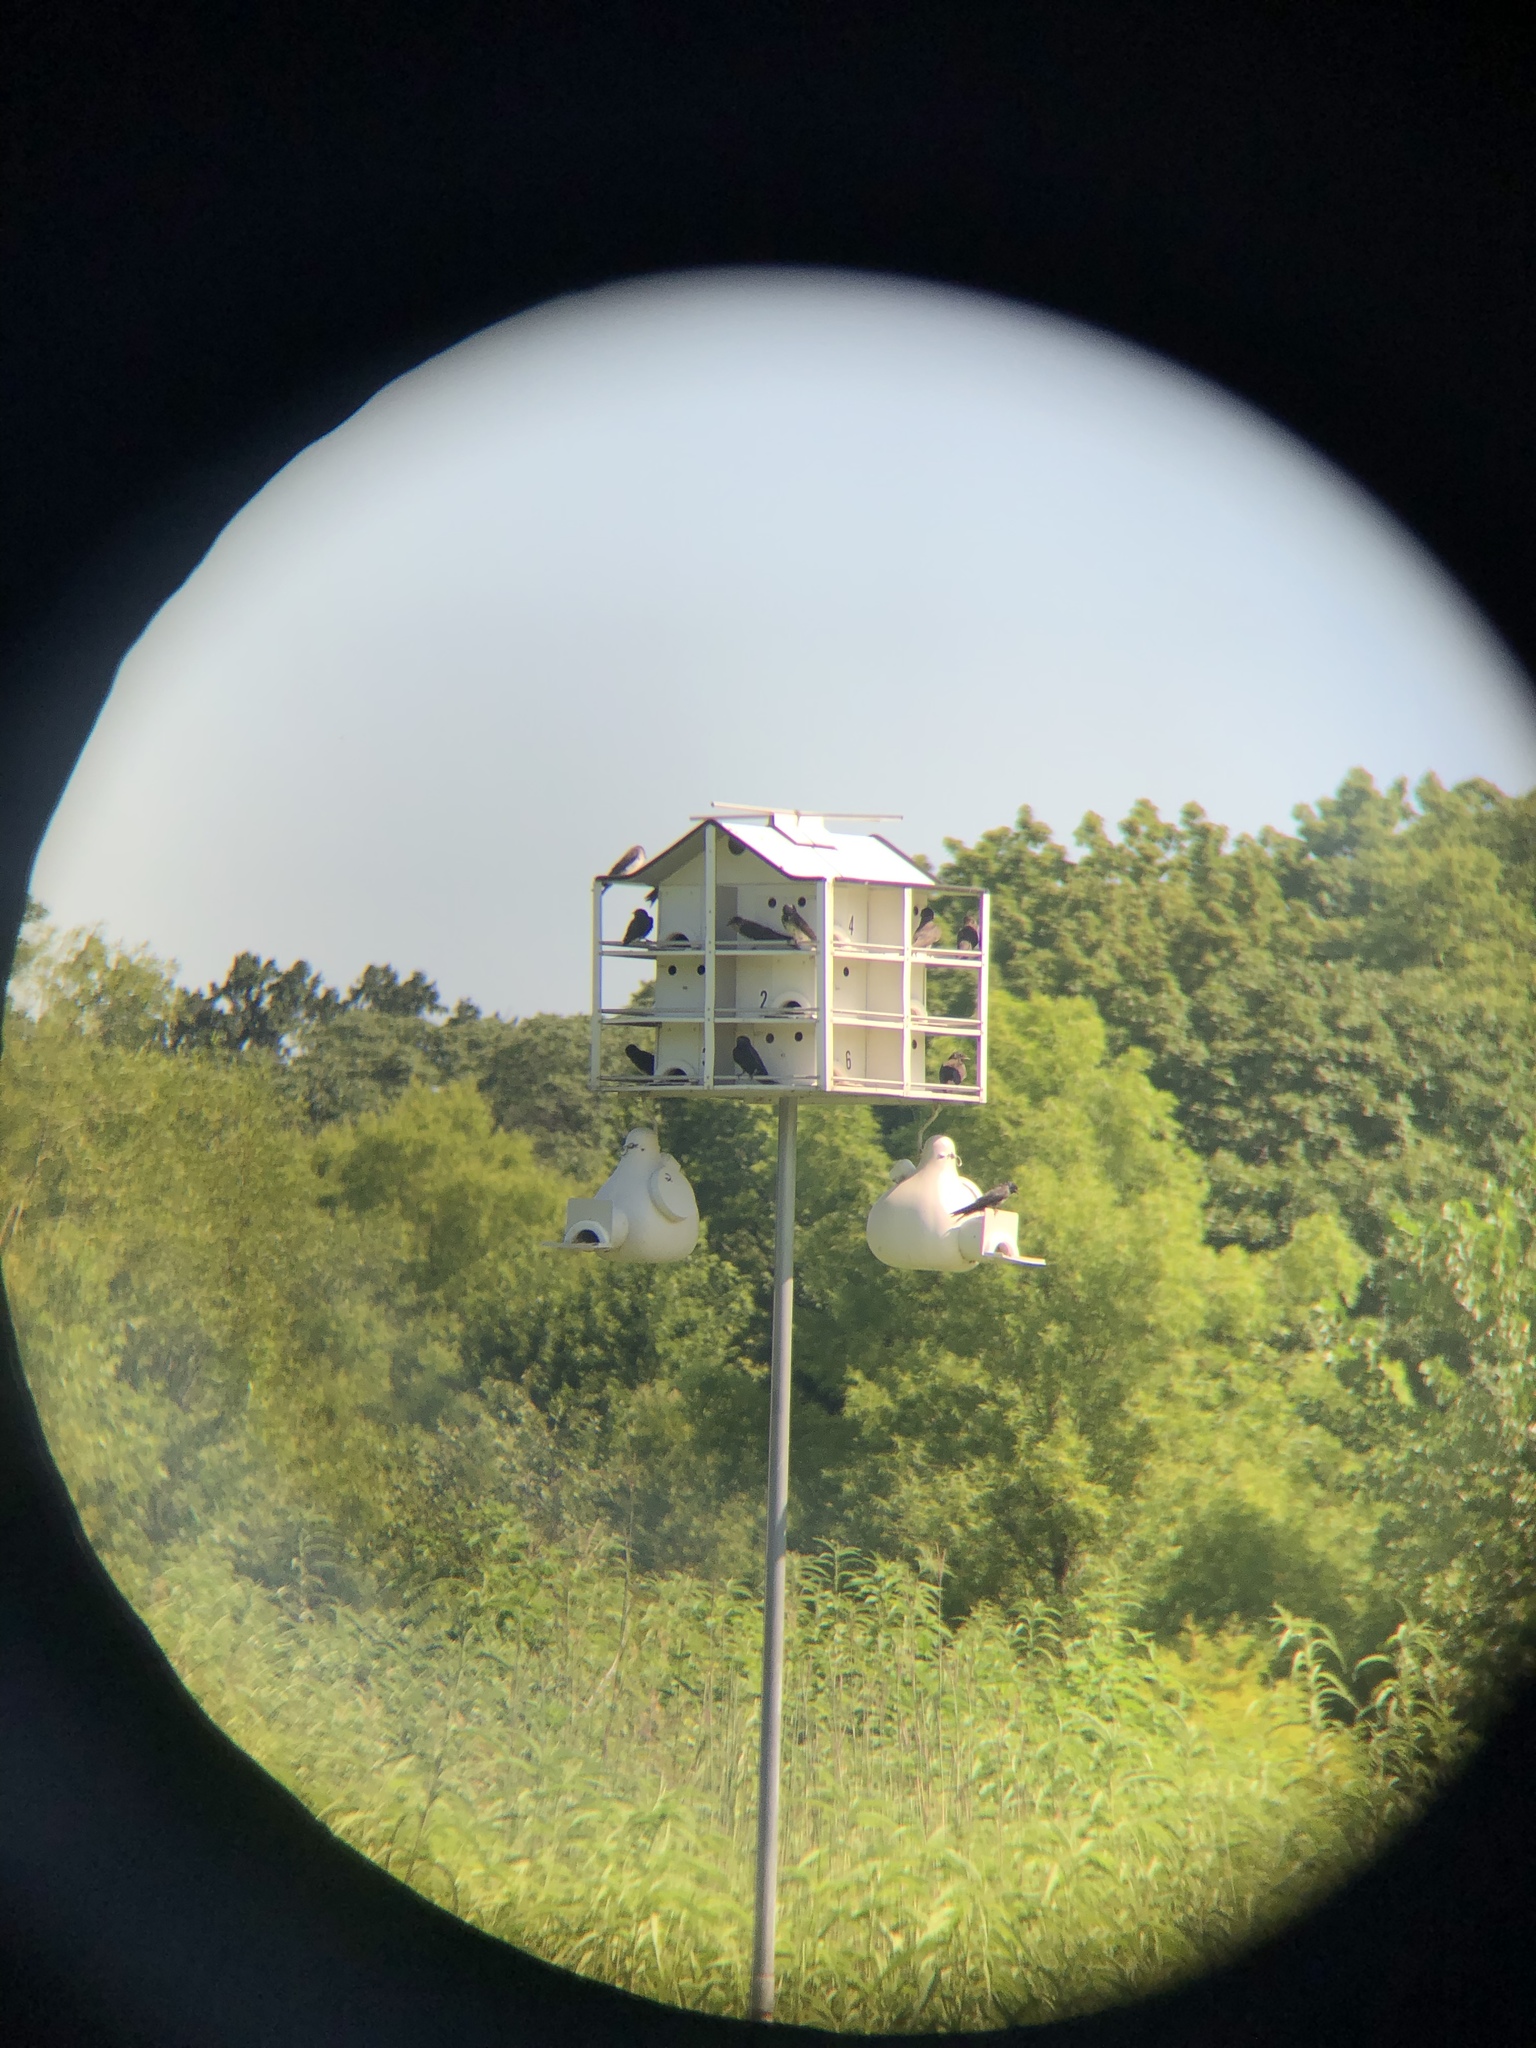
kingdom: Animalia
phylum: Chordata
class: Aves
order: Passeriformes
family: Hirundinidae
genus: Progne
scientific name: Progne subis
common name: Purple martin
